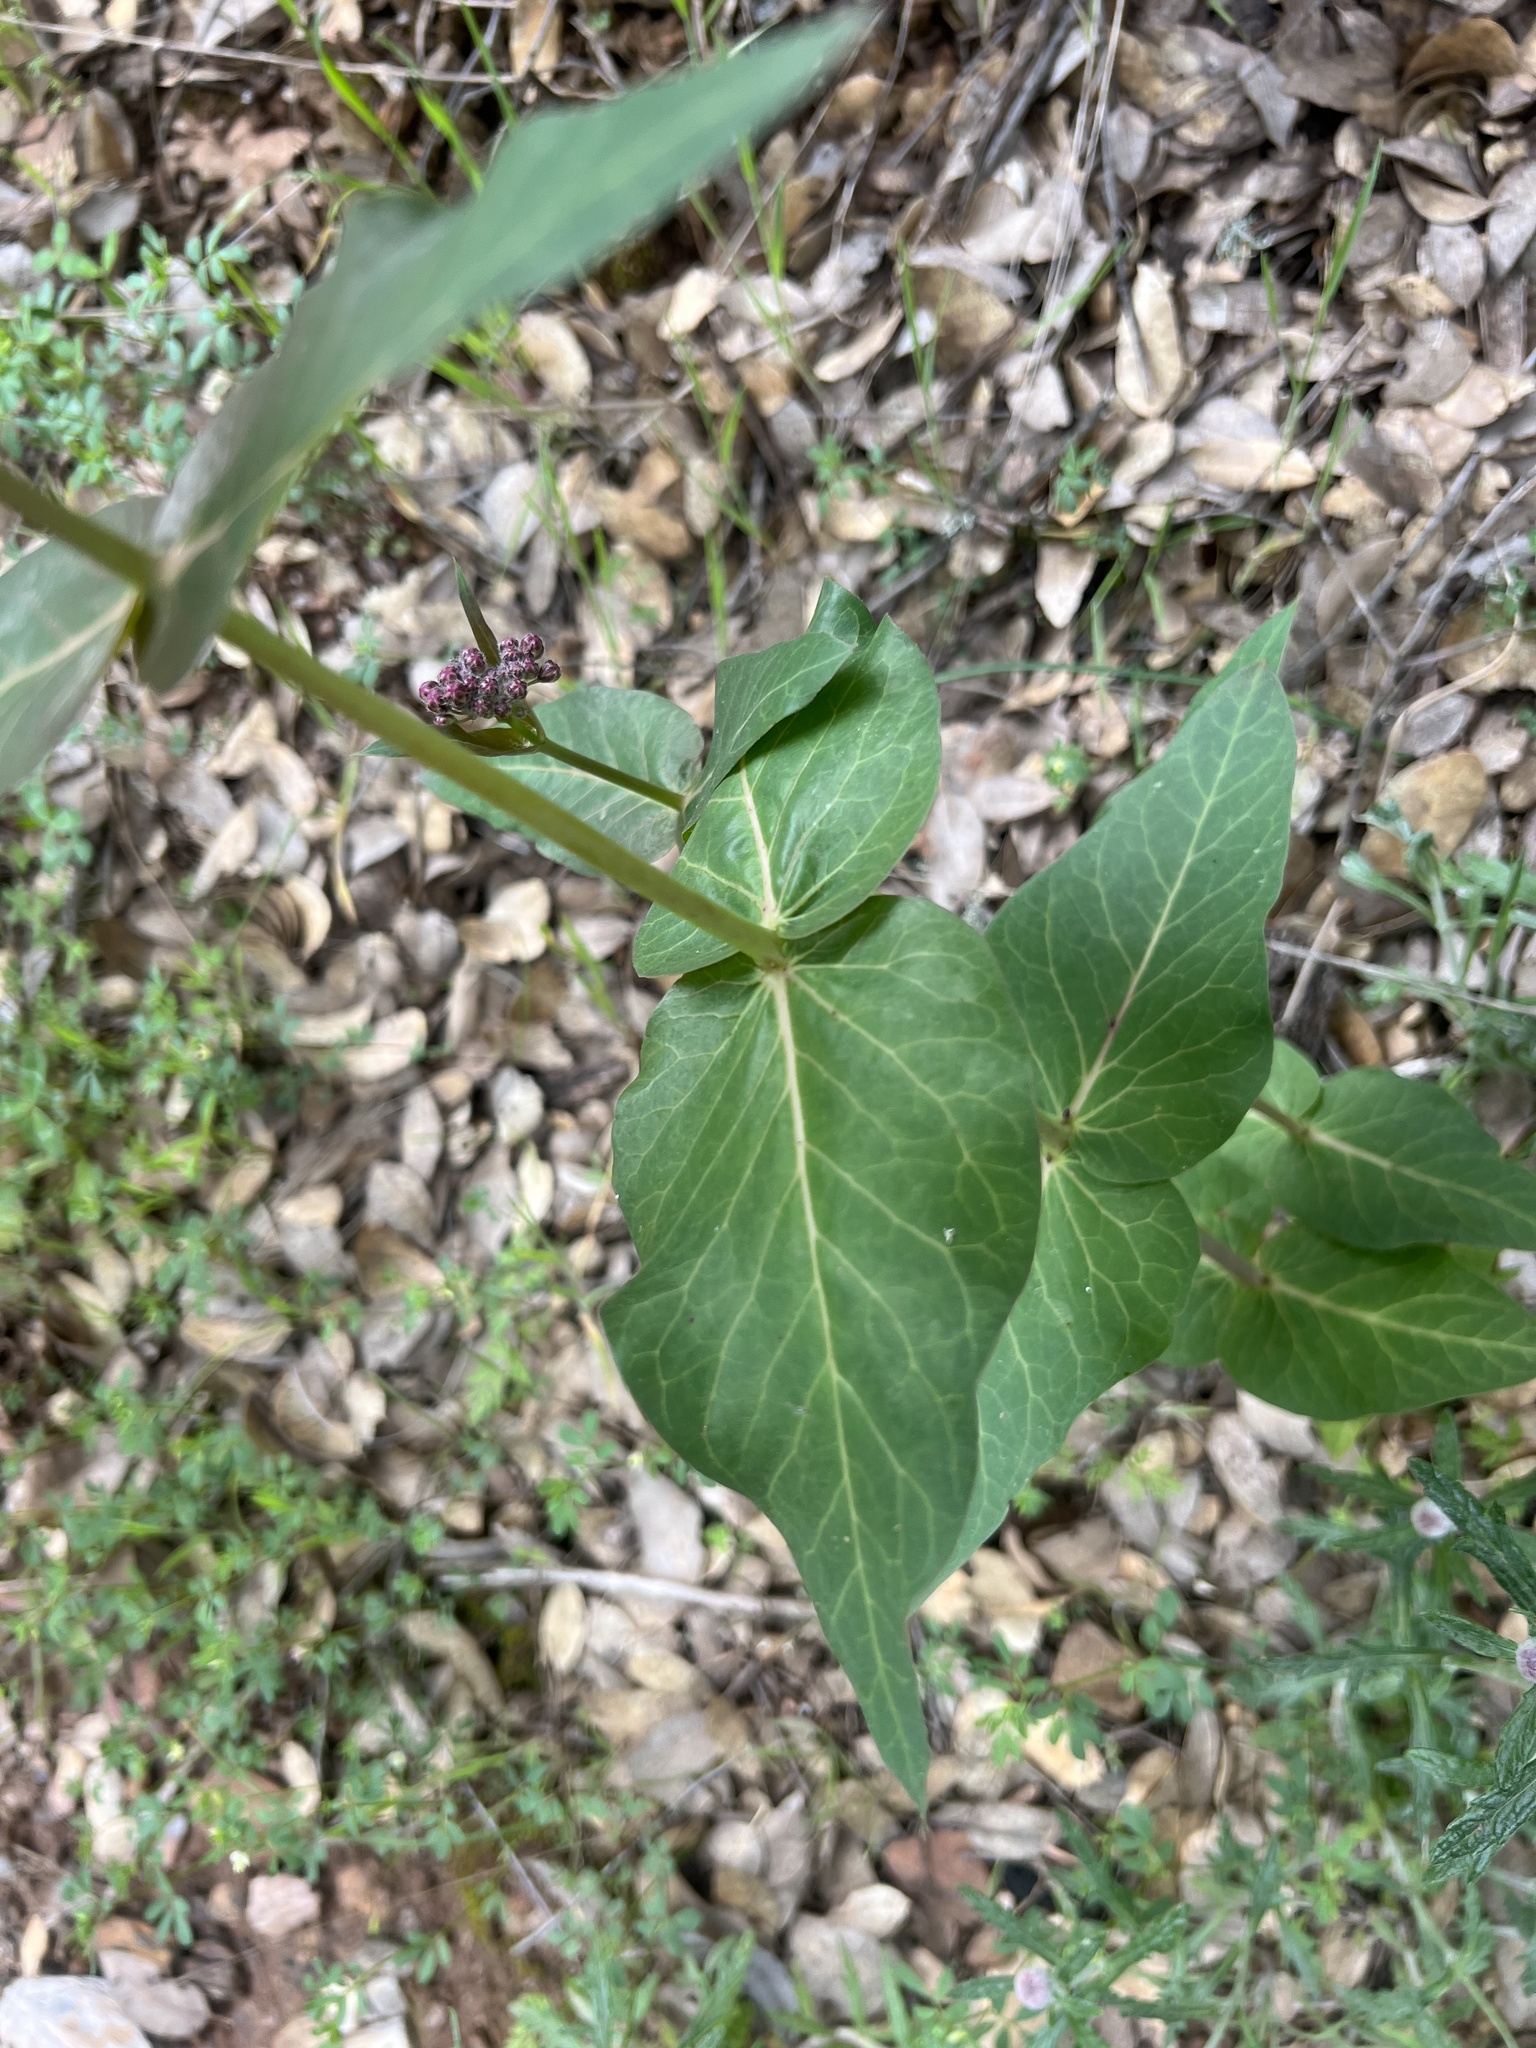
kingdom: Plantae
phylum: Tracheophyta
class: Magnoliopsida
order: Gentianales
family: Apocynaceae
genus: Asclepias
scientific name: Asclepias cordifolia
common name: Purple milkweed
